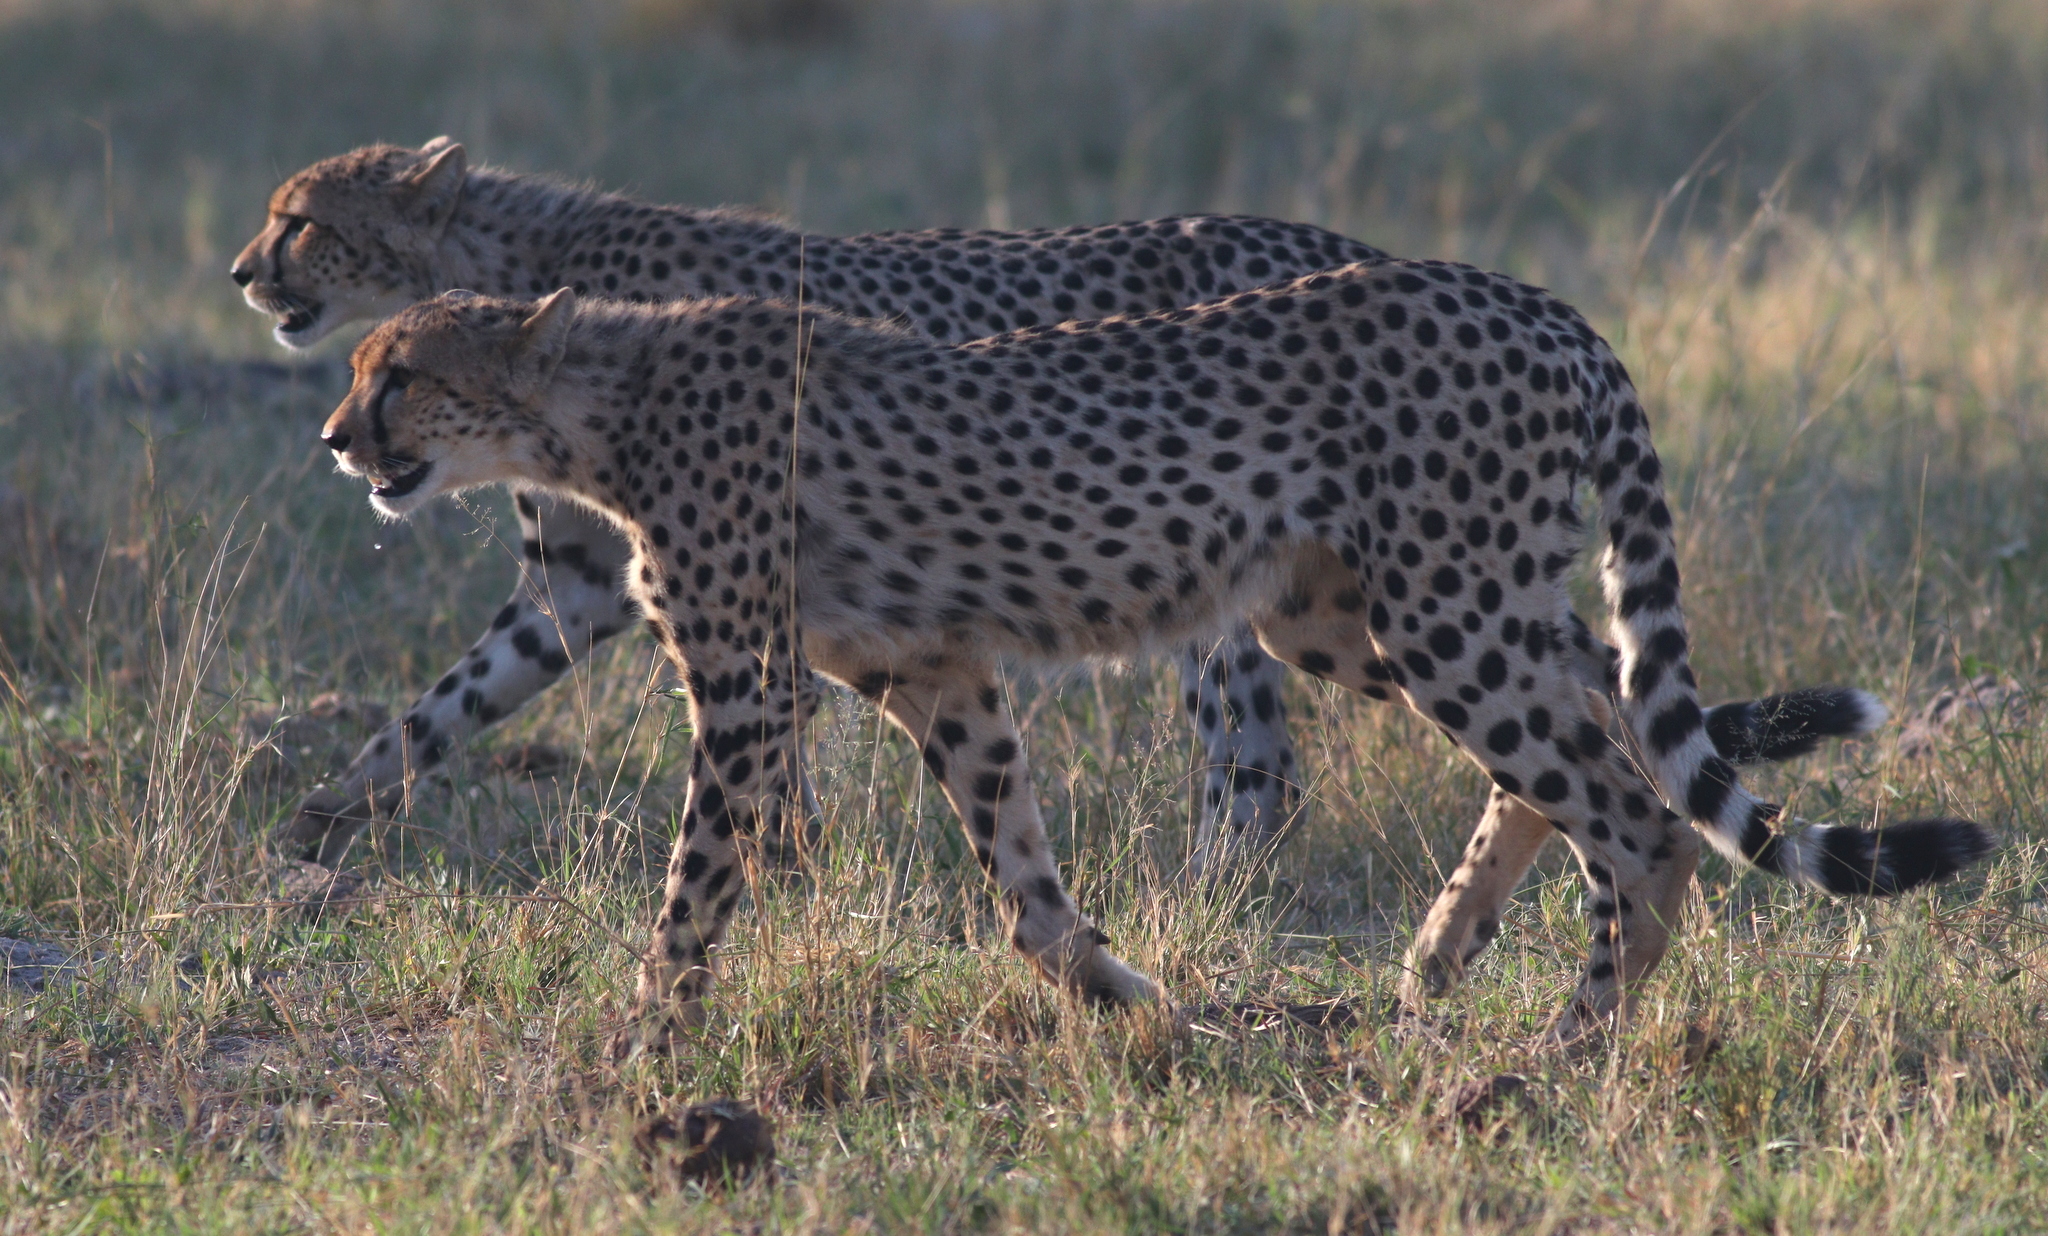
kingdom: Animalia
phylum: Chordata
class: Mammalia
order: Carnivora
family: Felidae
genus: Acinonyx
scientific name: Acinonyx jubatus
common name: Cheetah
